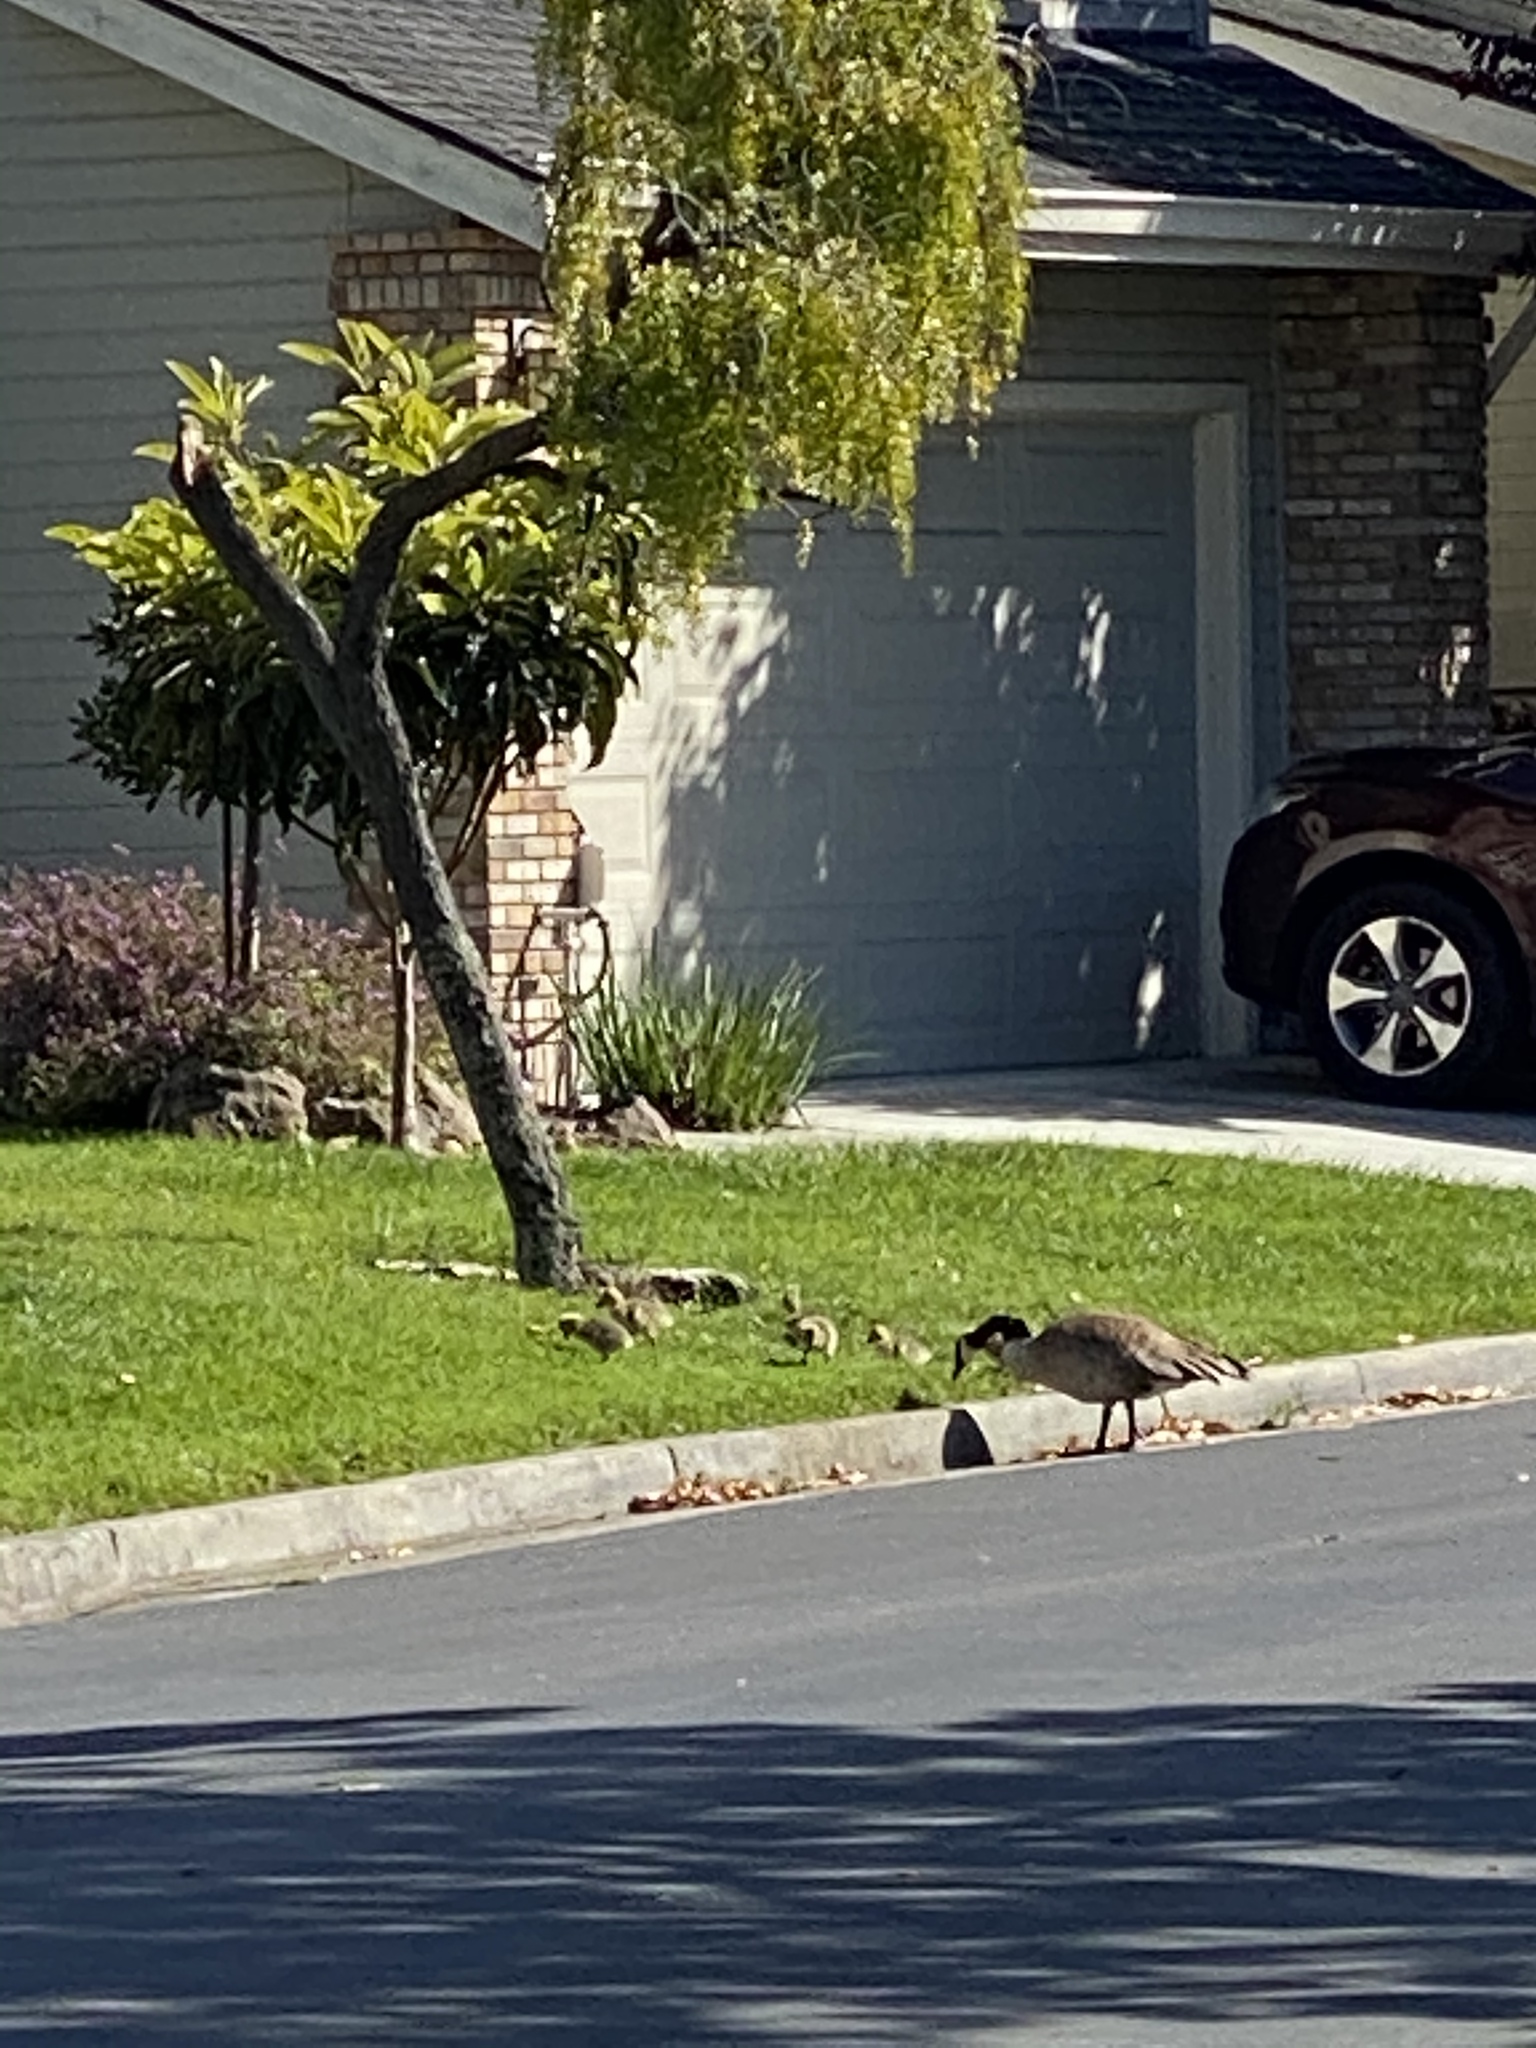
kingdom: Animalia
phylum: Chordata
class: Aves
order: Anseriformes
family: Anatidae
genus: Branta
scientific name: Branta canadensis
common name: Canada goose
